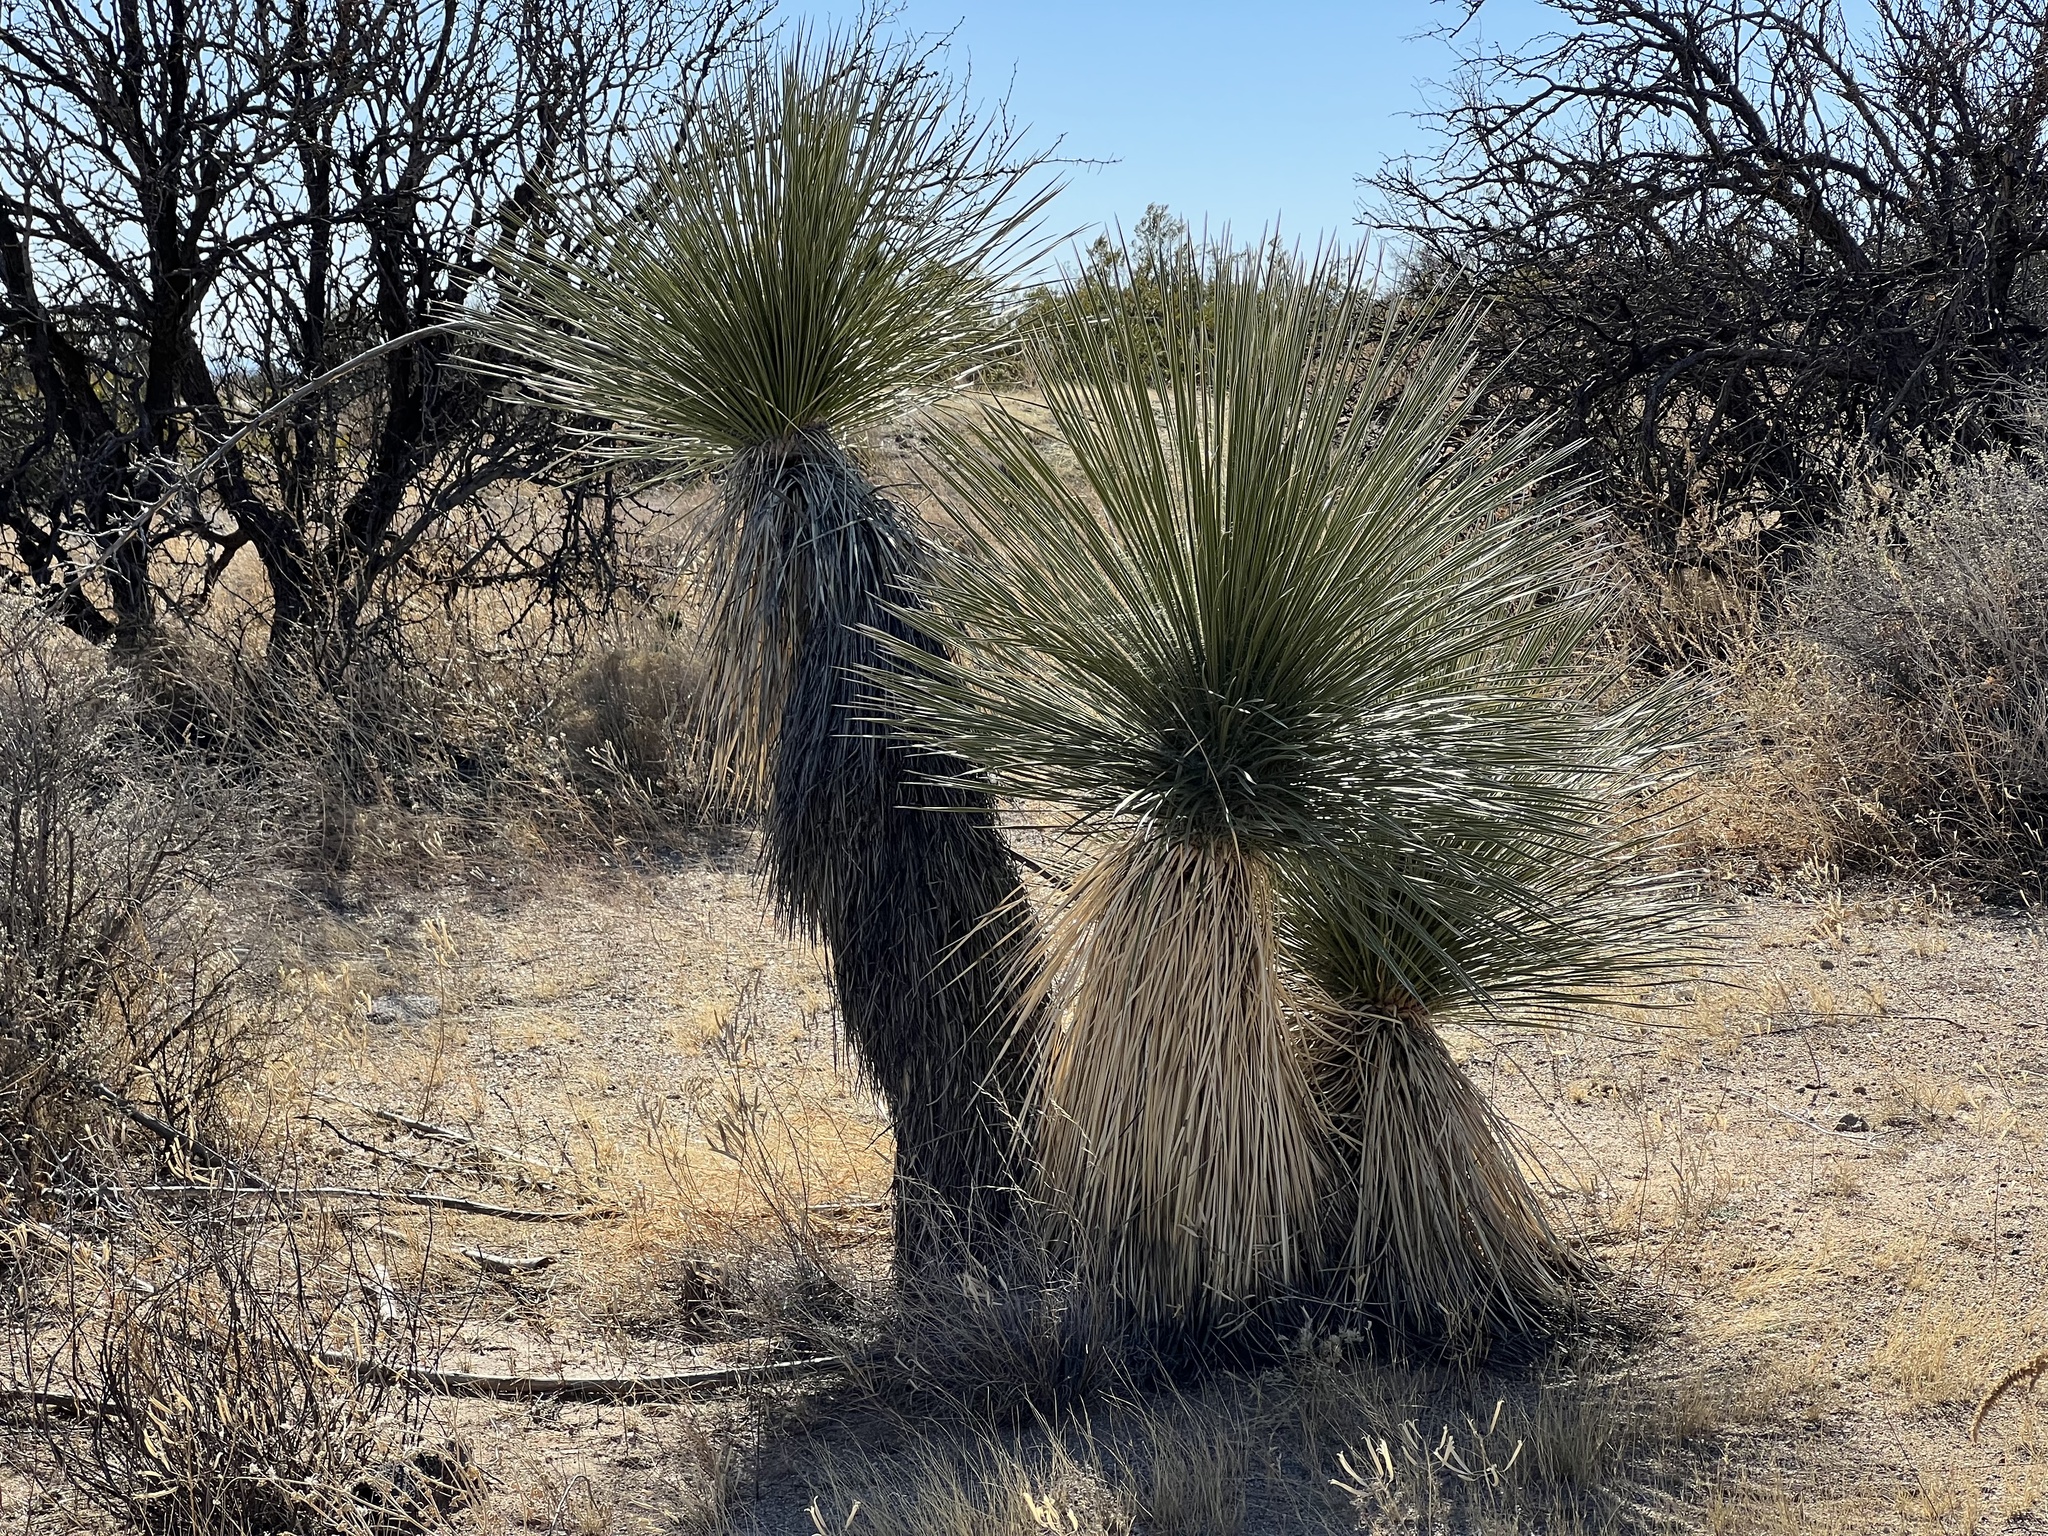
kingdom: Plantae
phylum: Tracheophyta
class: Liliopsida
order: Asparagales
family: Asparagaceae
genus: Yucca
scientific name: Yucca elata
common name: Palmella
